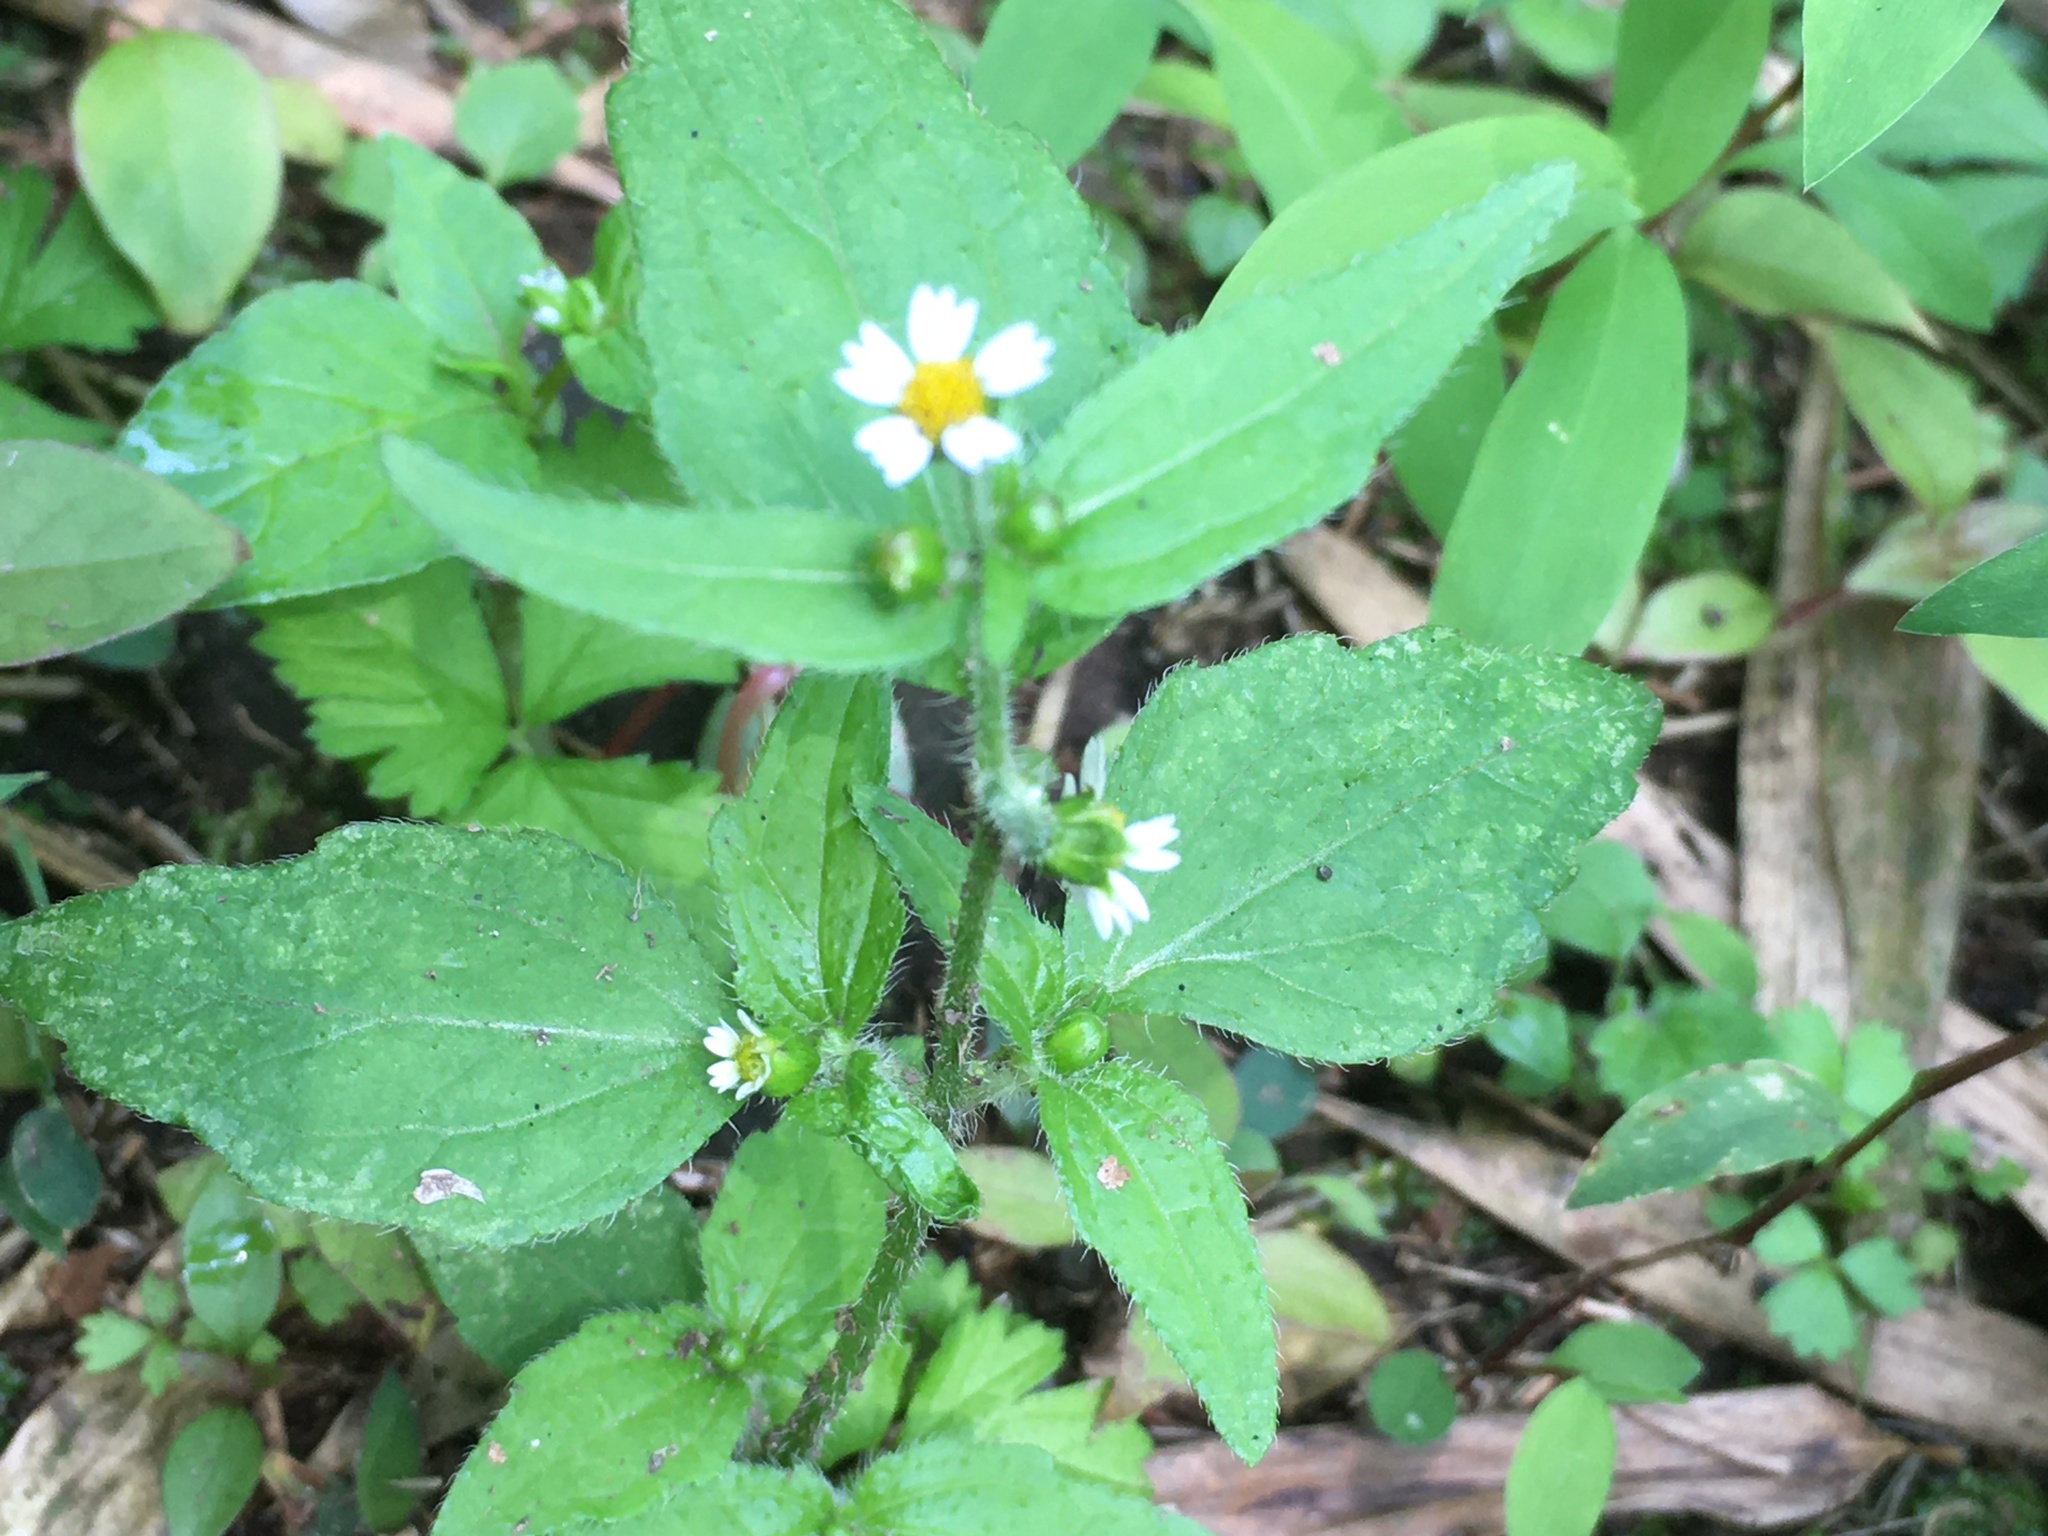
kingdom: Plantae
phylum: Tracheophyta
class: Magnoliopsida
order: Asterales
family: Asteraceae
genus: Galinsoga
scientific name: Galinsoga quadriradiata
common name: Shaggy soldier
